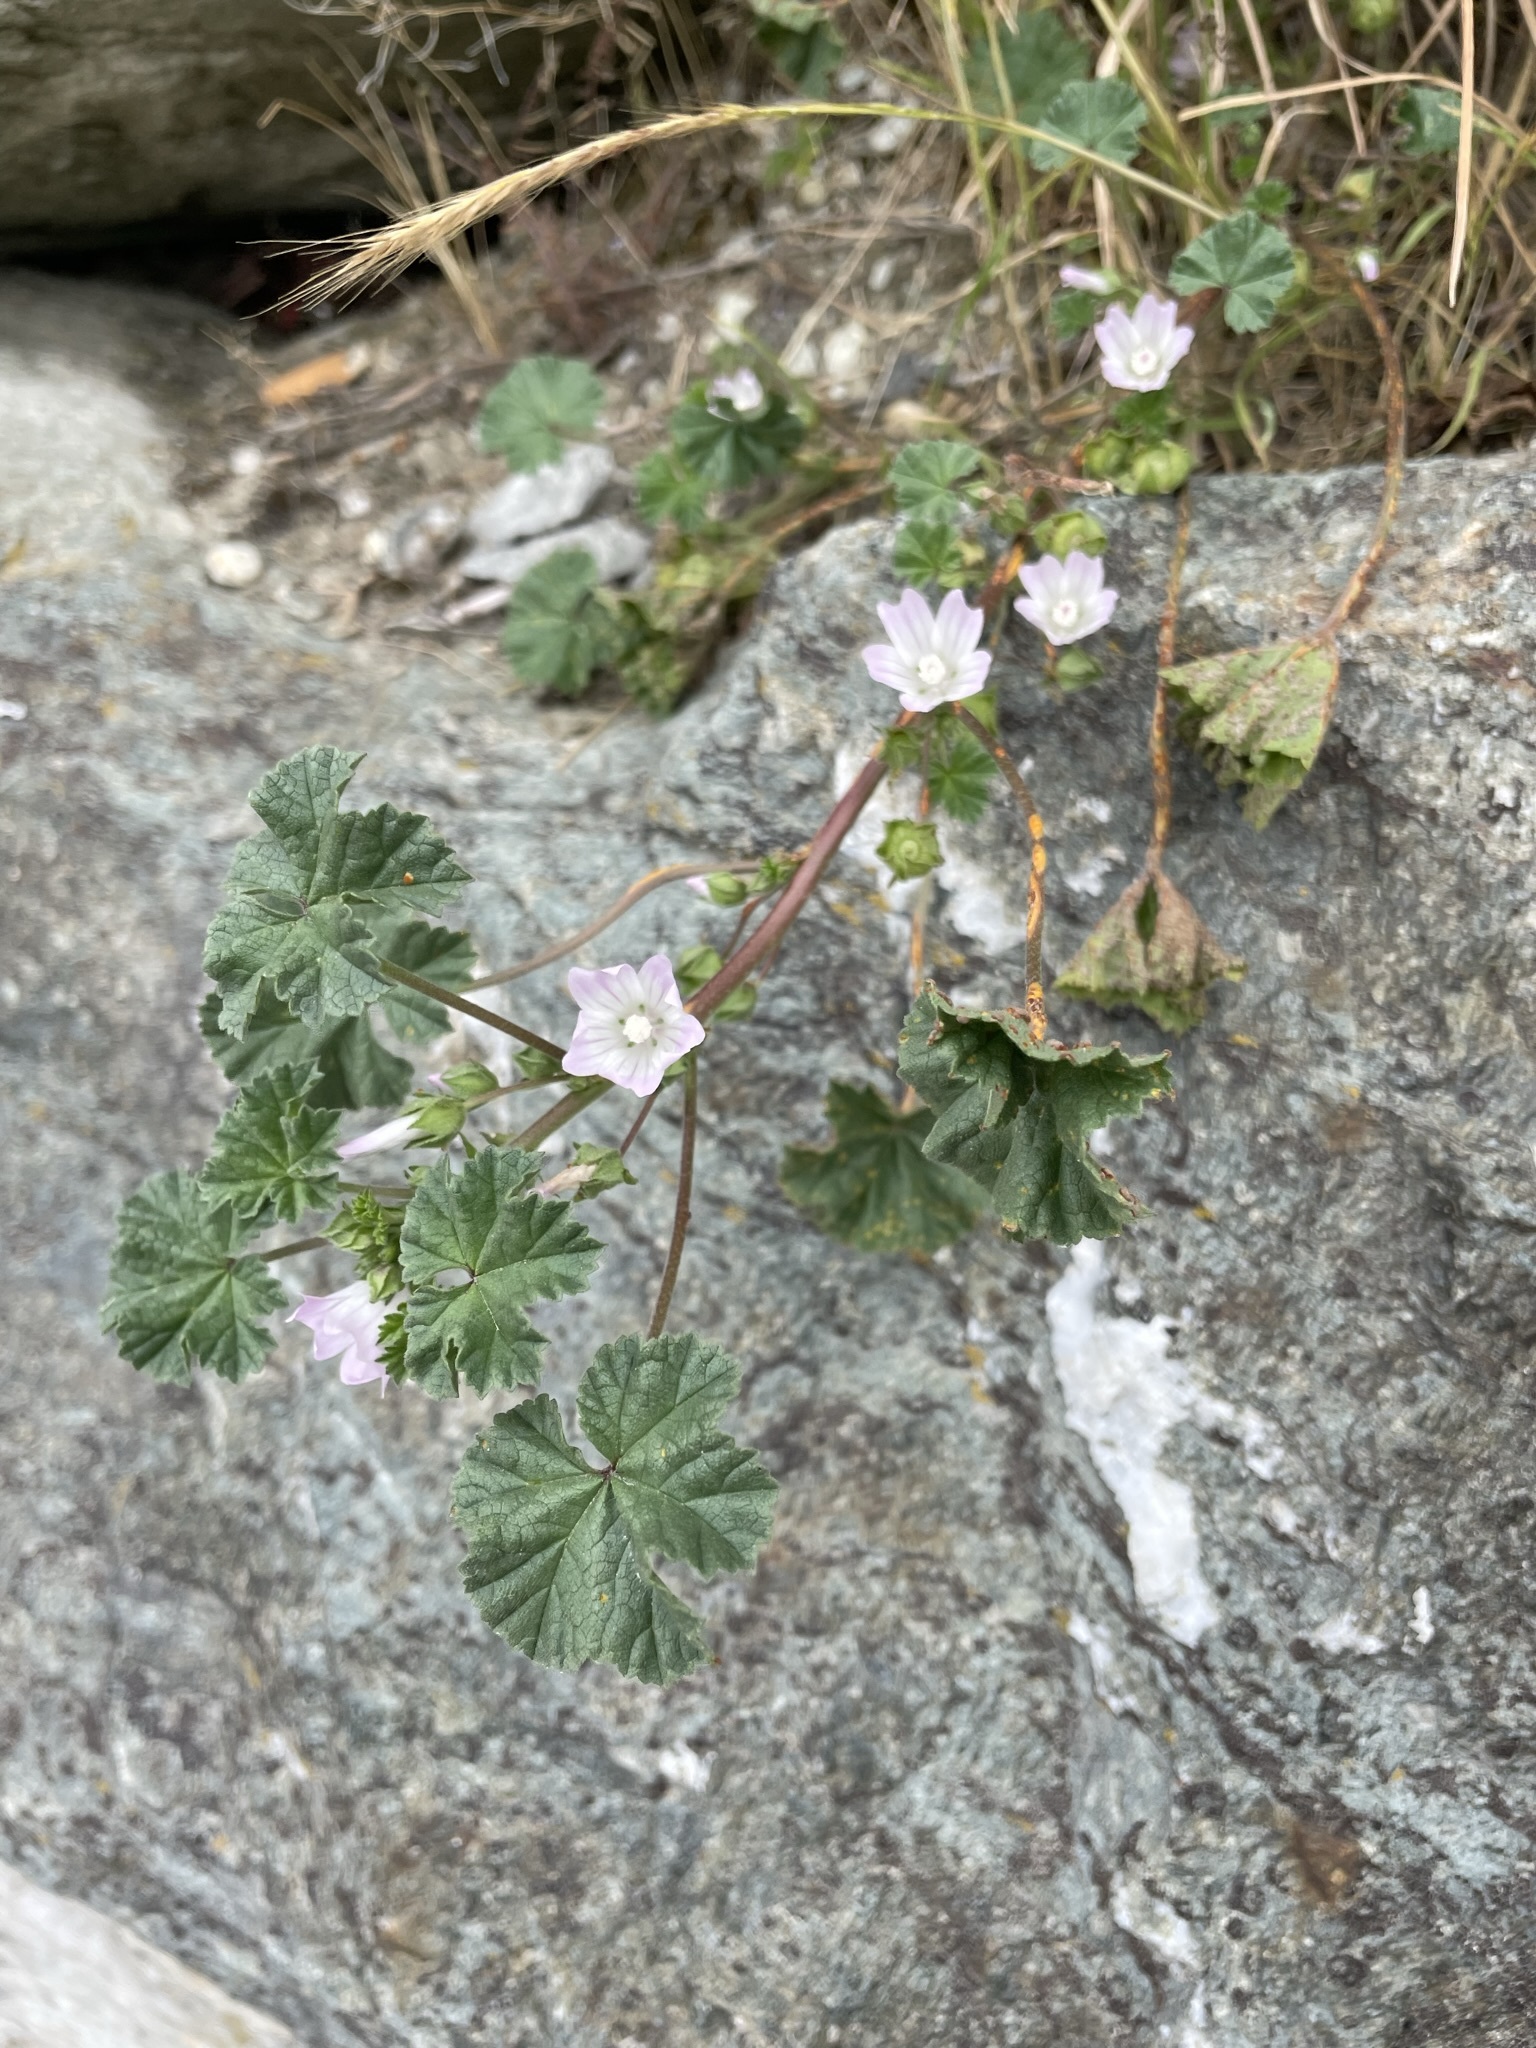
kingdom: Plantae
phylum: Tracheophyta
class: Magnoliopsida
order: Malvales
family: Malvaceae
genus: Malva
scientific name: Malva neglecta
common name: Common mallow
